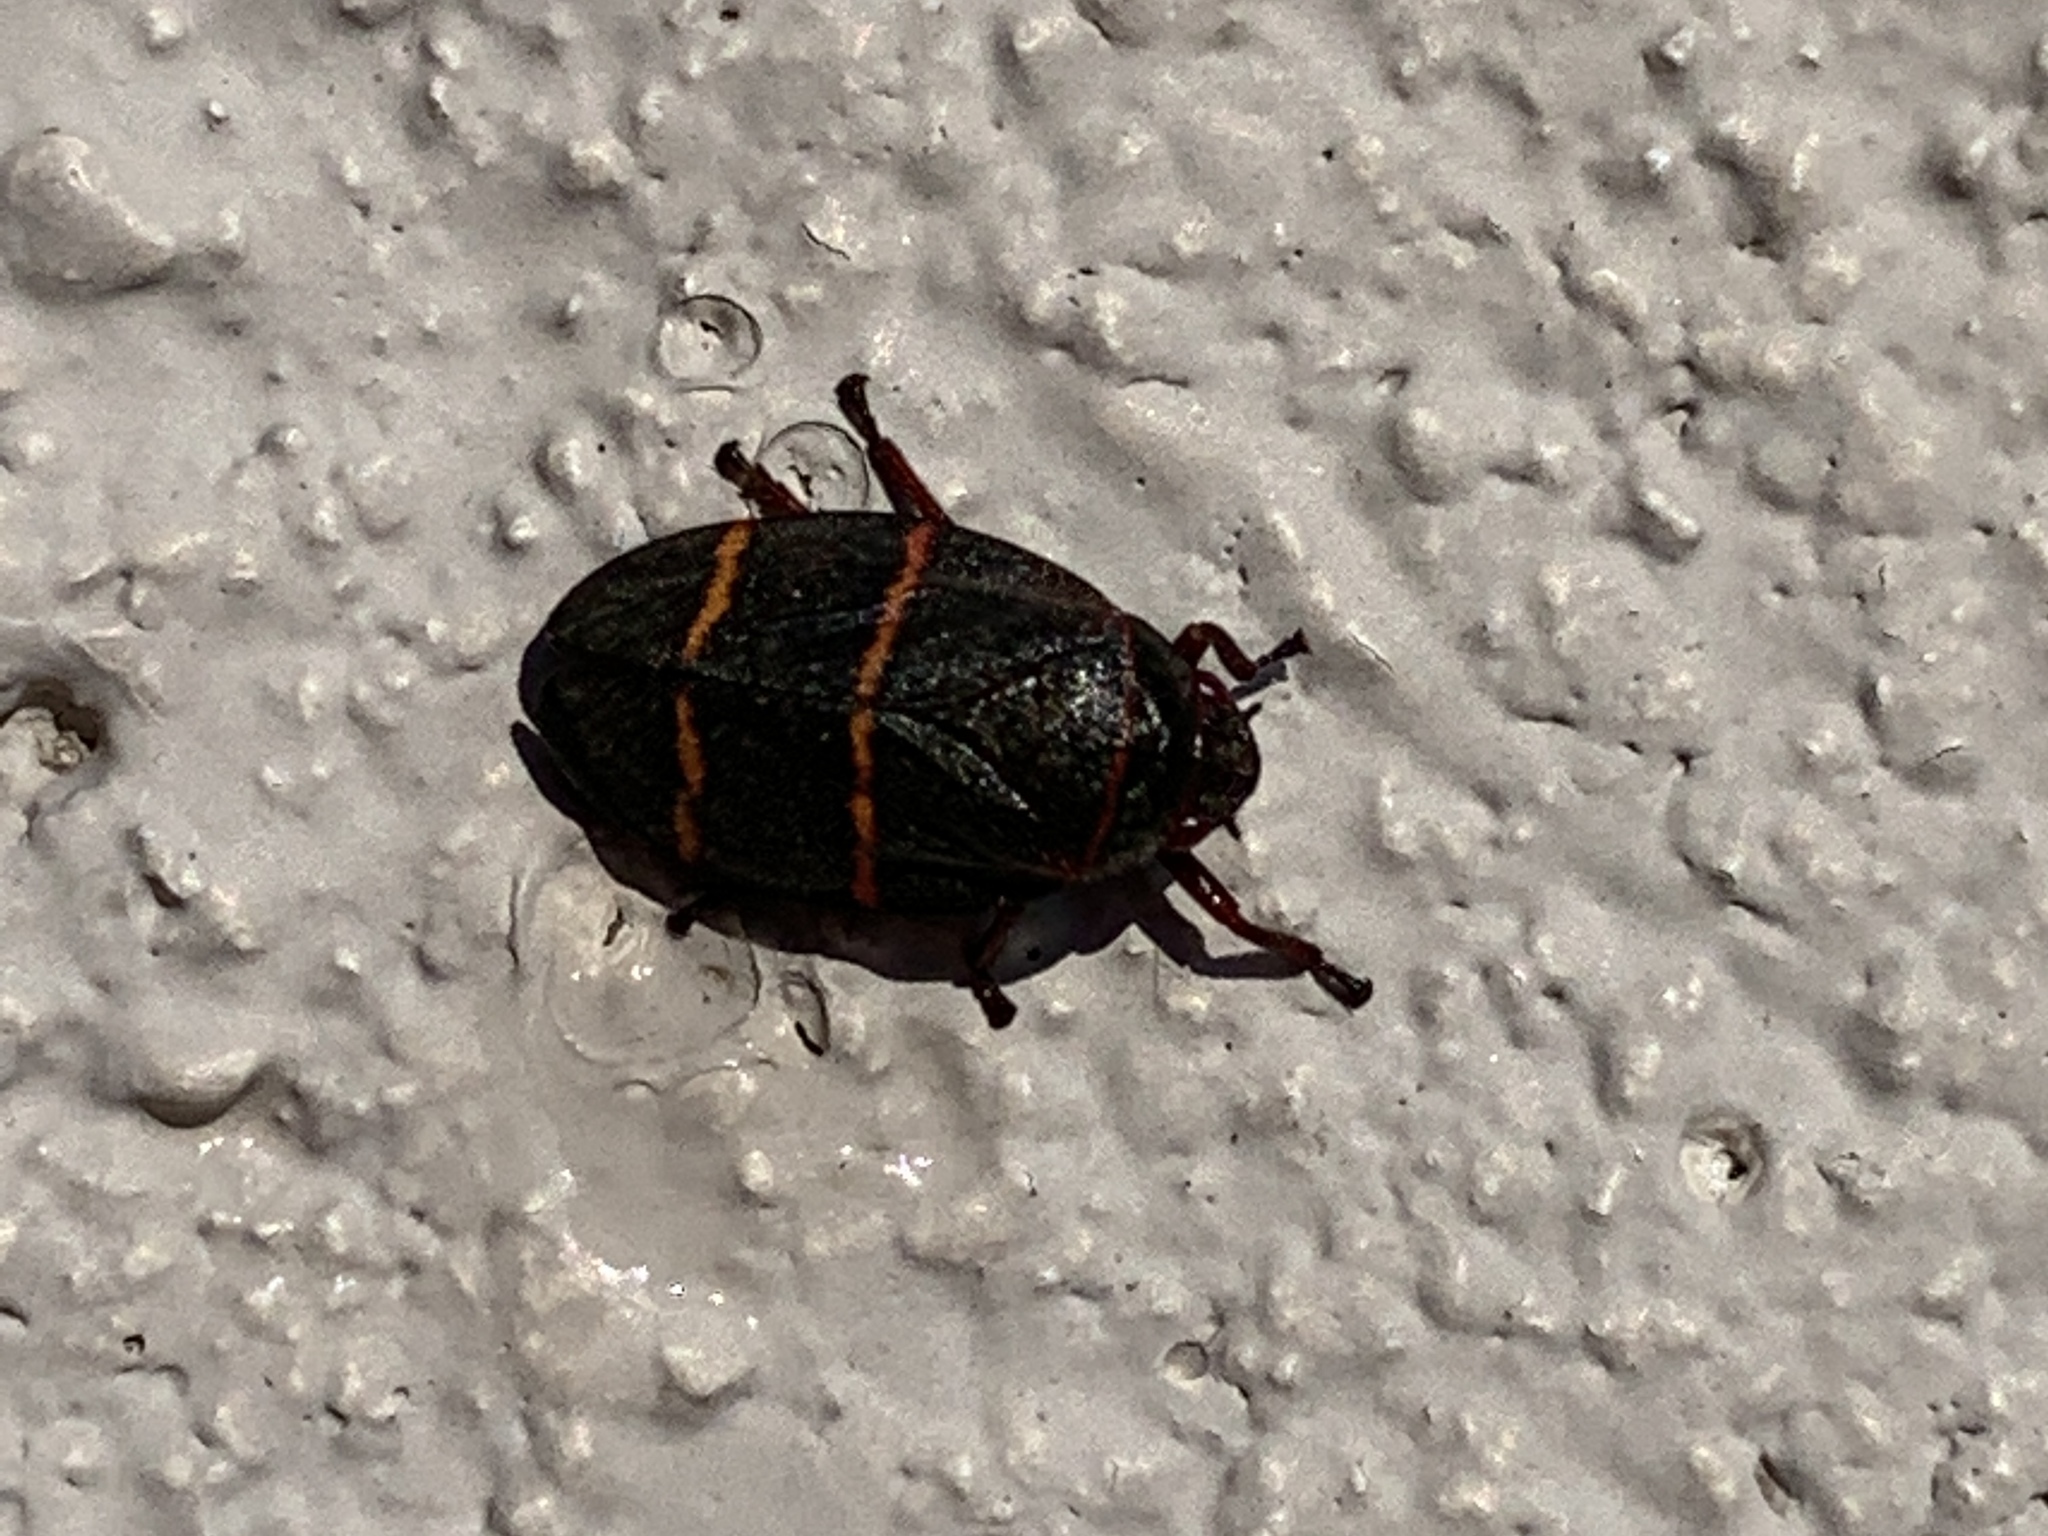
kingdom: Animalia
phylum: Arthropoda
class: Insecta
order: Hemiptera
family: Cercopidae
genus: Prosapia
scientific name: Prosapia bicincta
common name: Twolined spittlebug
